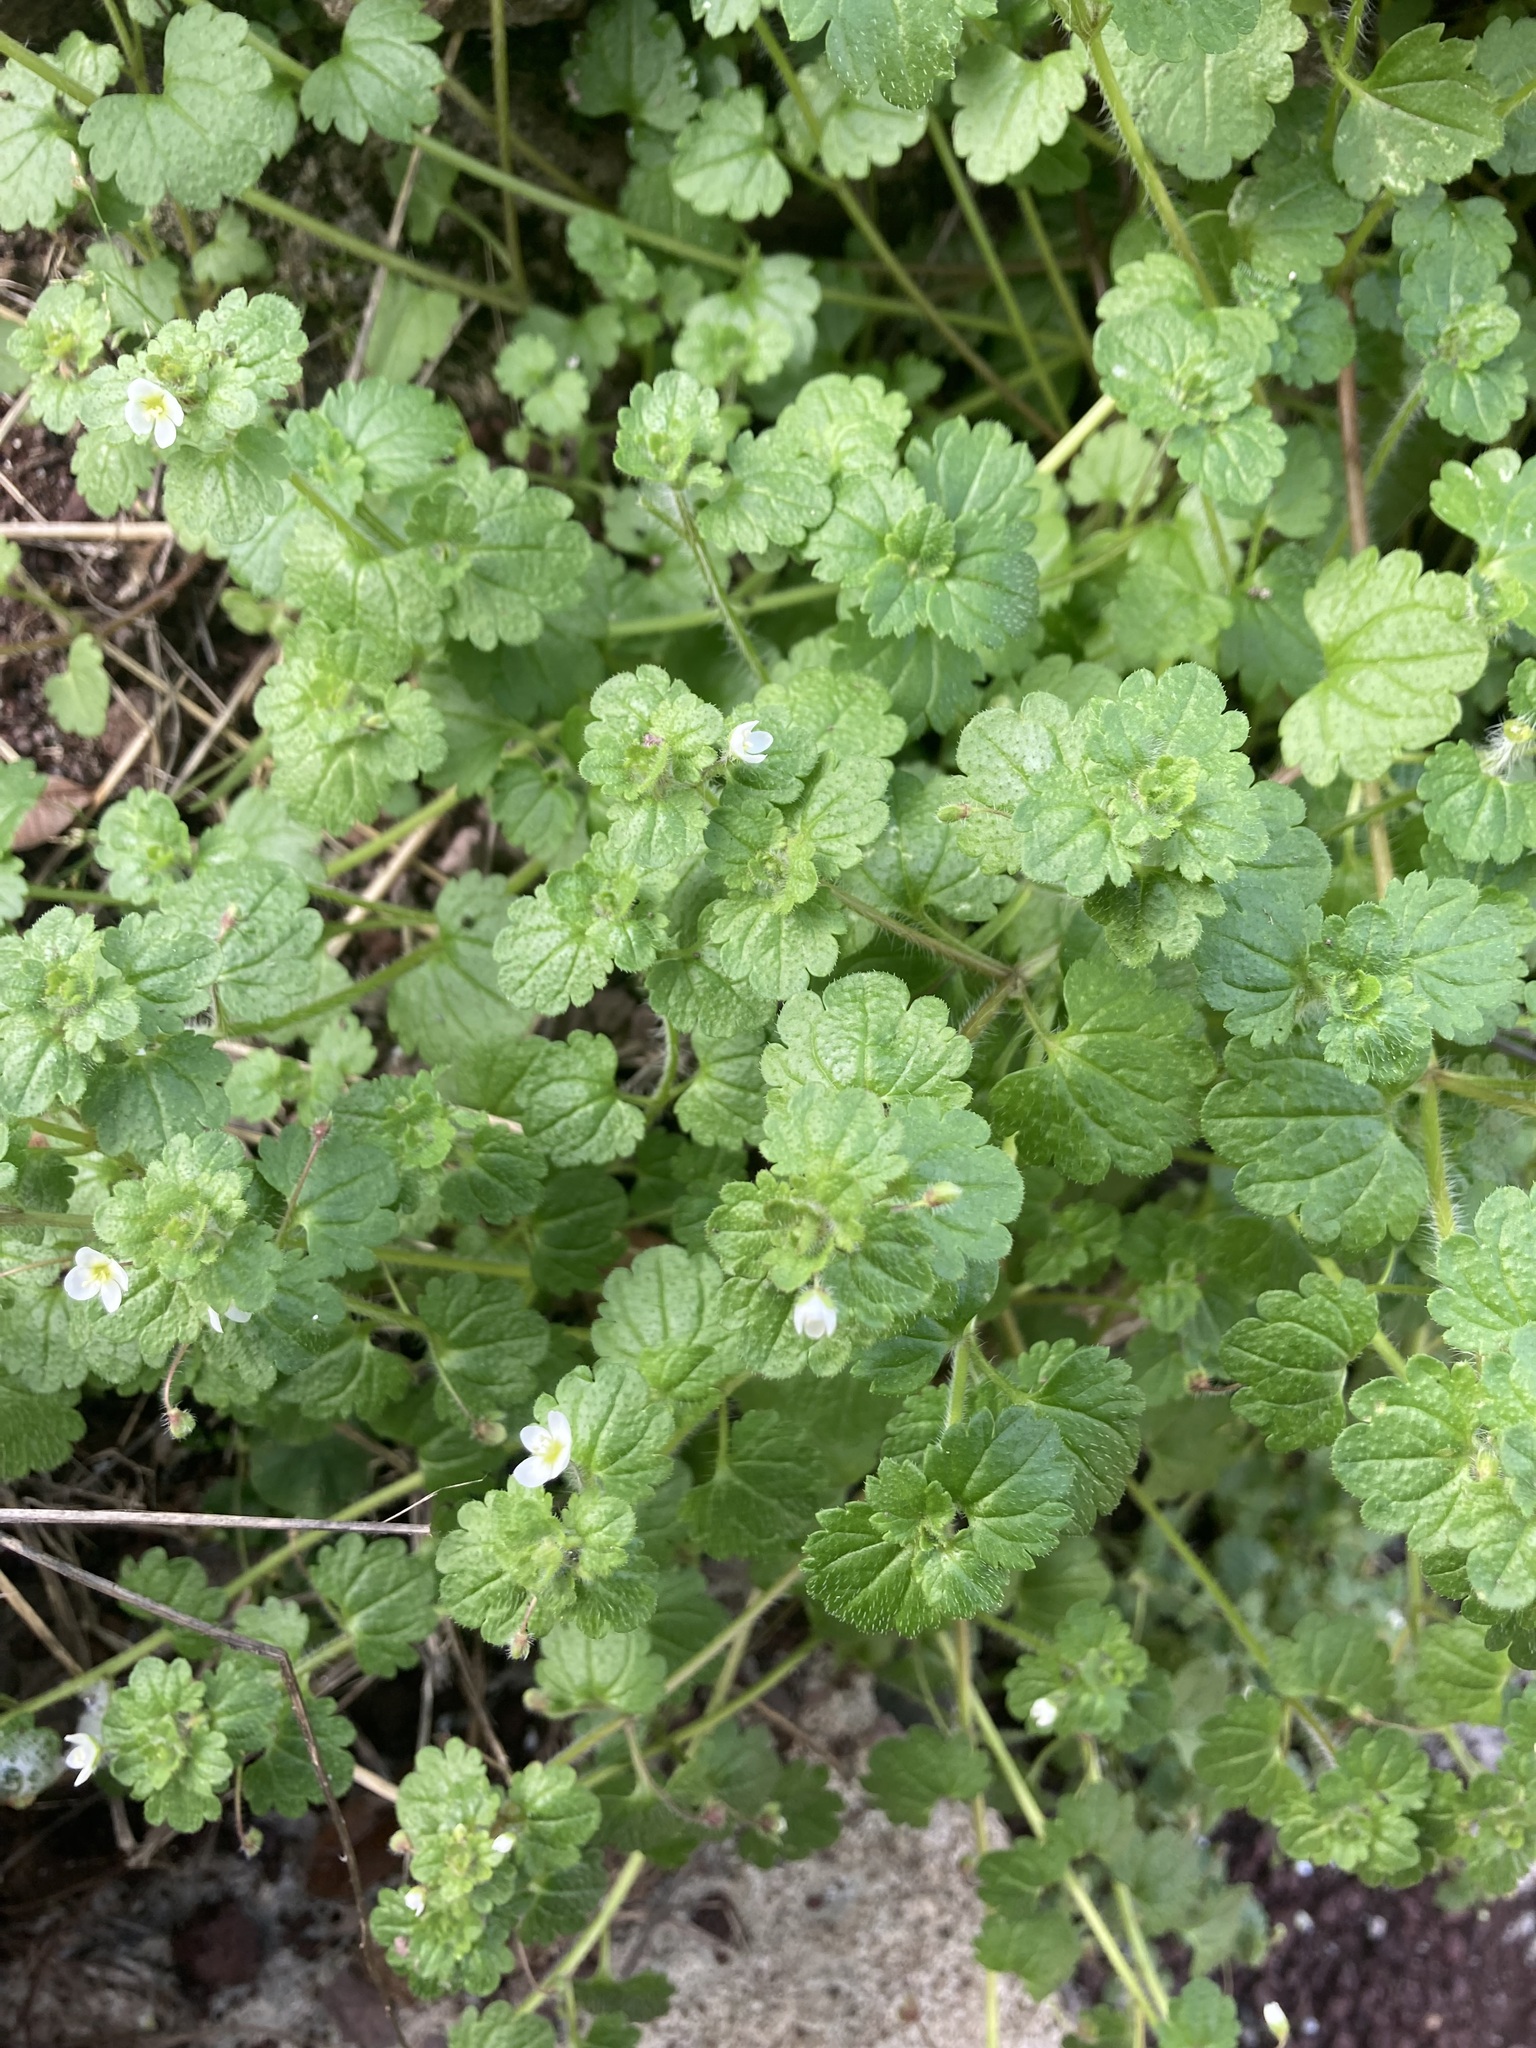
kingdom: Plantae
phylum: Tracheophyta
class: Magnoliopsida
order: Lamiales
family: Plantaginaceae
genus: Veronica
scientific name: Veronica cymbalaria
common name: Pale speedwell
